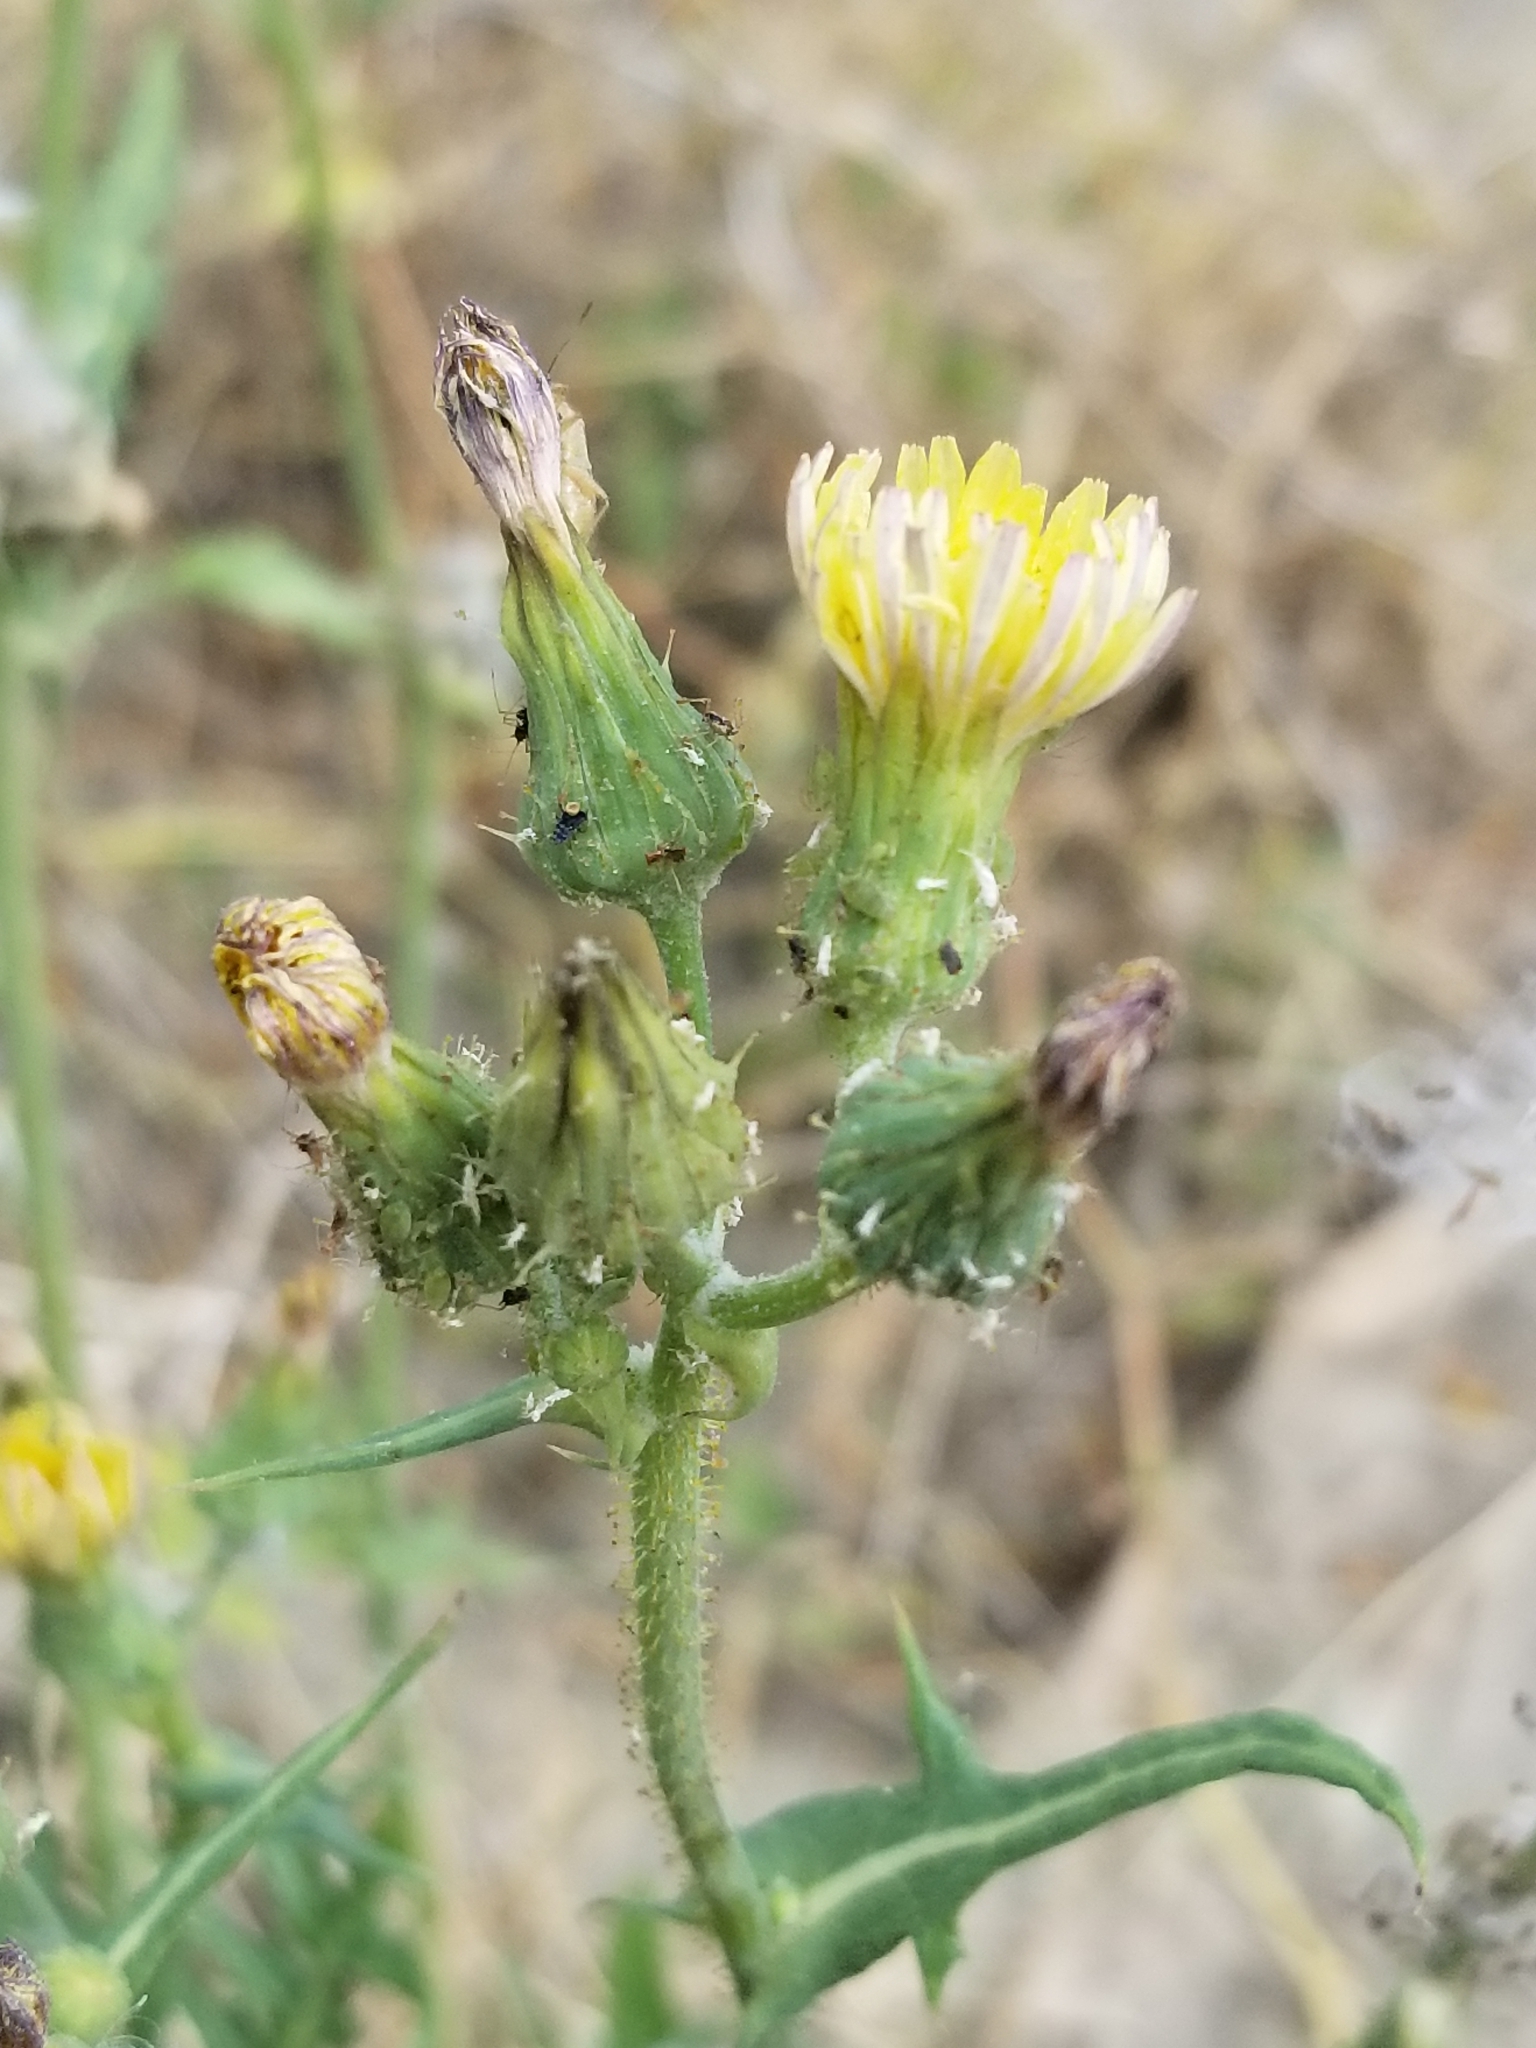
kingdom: Plantae
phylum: Tracheophyta
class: Magnoliopsida
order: Asterales
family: Asteraceae
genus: Sonchus
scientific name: Sonchus oleraceus
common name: Common sowthistle
